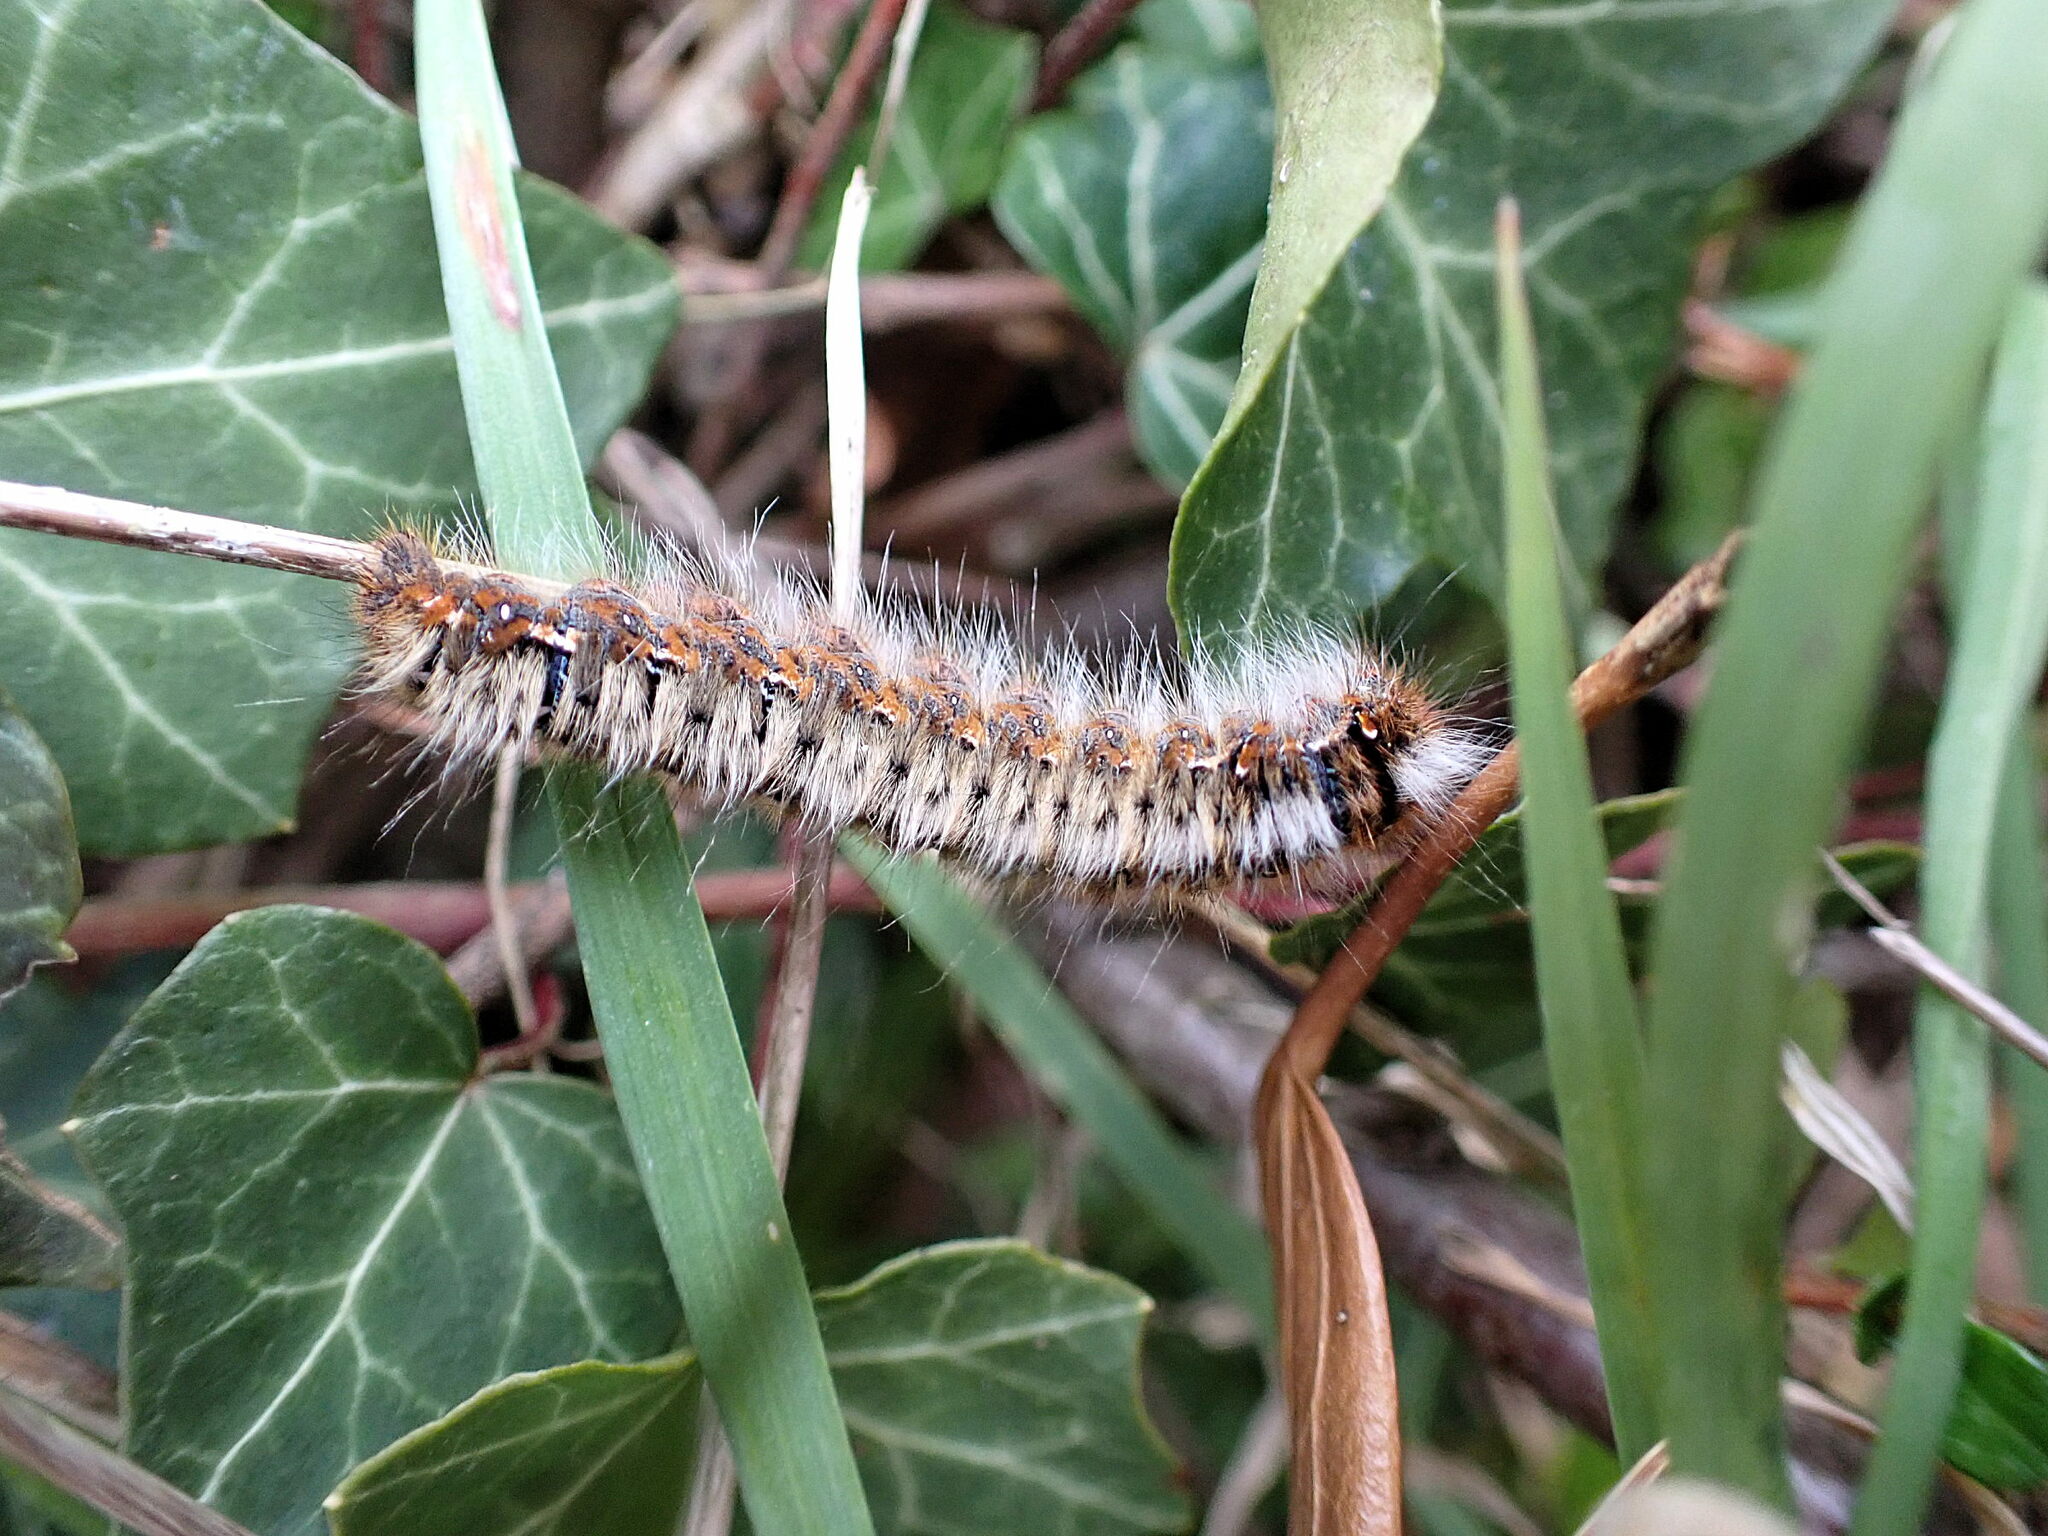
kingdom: Animalia
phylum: Arthropoda
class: Insecta
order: Lepidoptera
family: Lasiocampidae
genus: Lasiocampa
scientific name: Lasiocampa quercus
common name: Oak eggar
